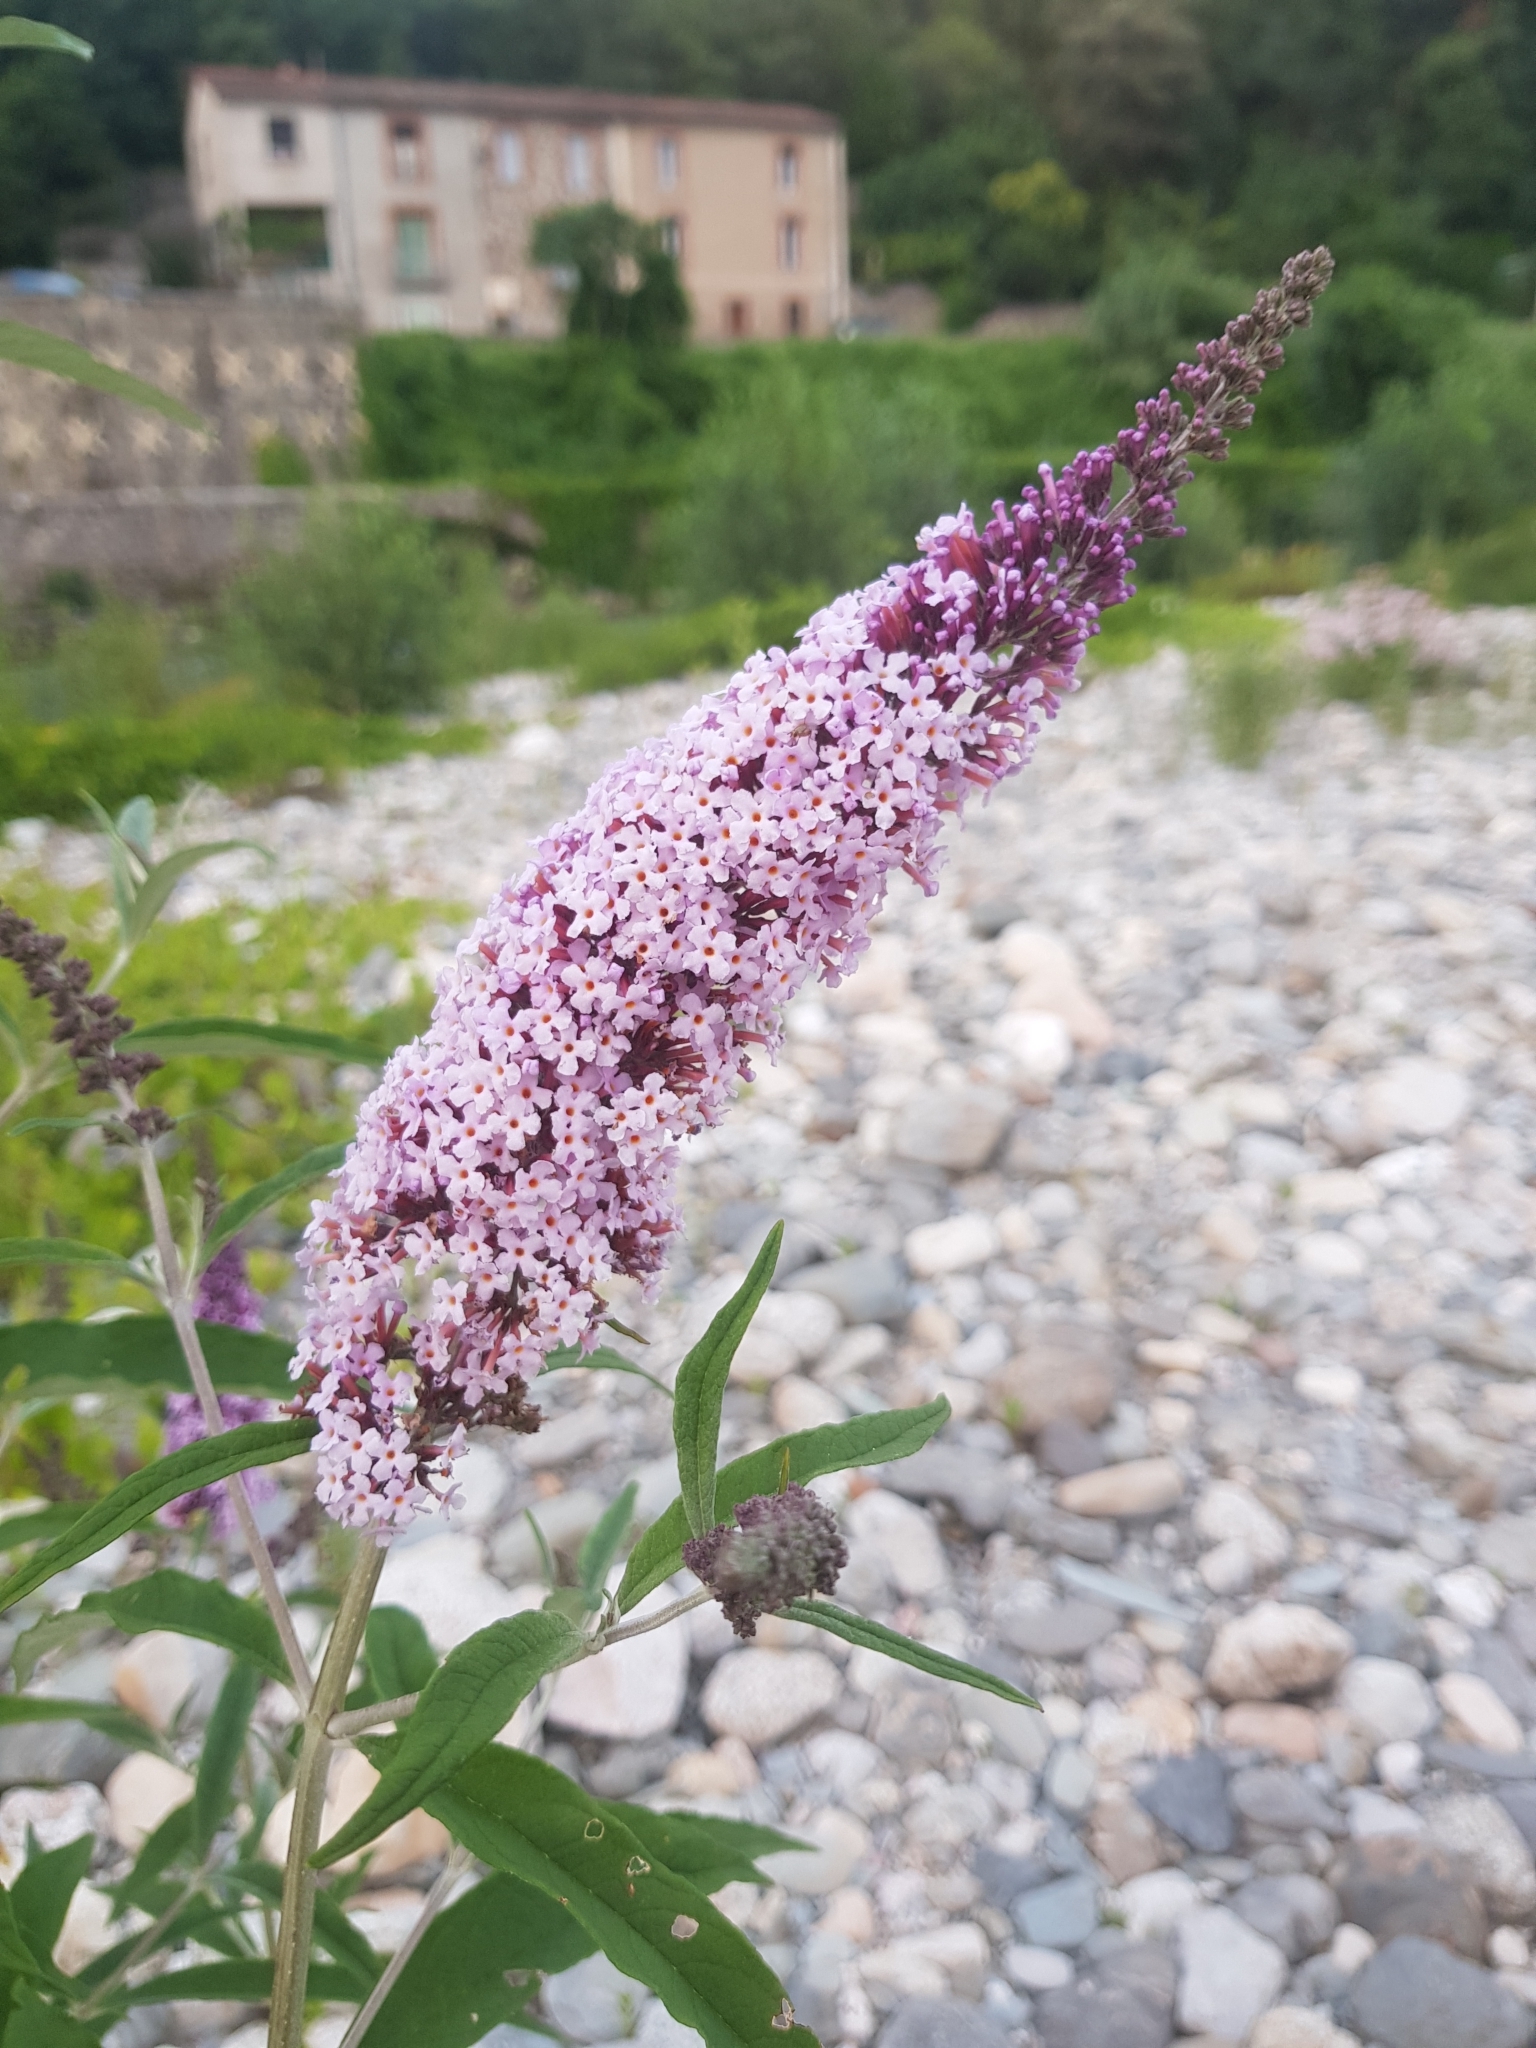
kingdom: Plantae
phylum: Tracheophyta
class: Magnoliopsida
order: Lamiales
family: Scrophulariaceae
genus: Buddleja
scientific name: Buddleja davidii
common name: Butterfly-bush
